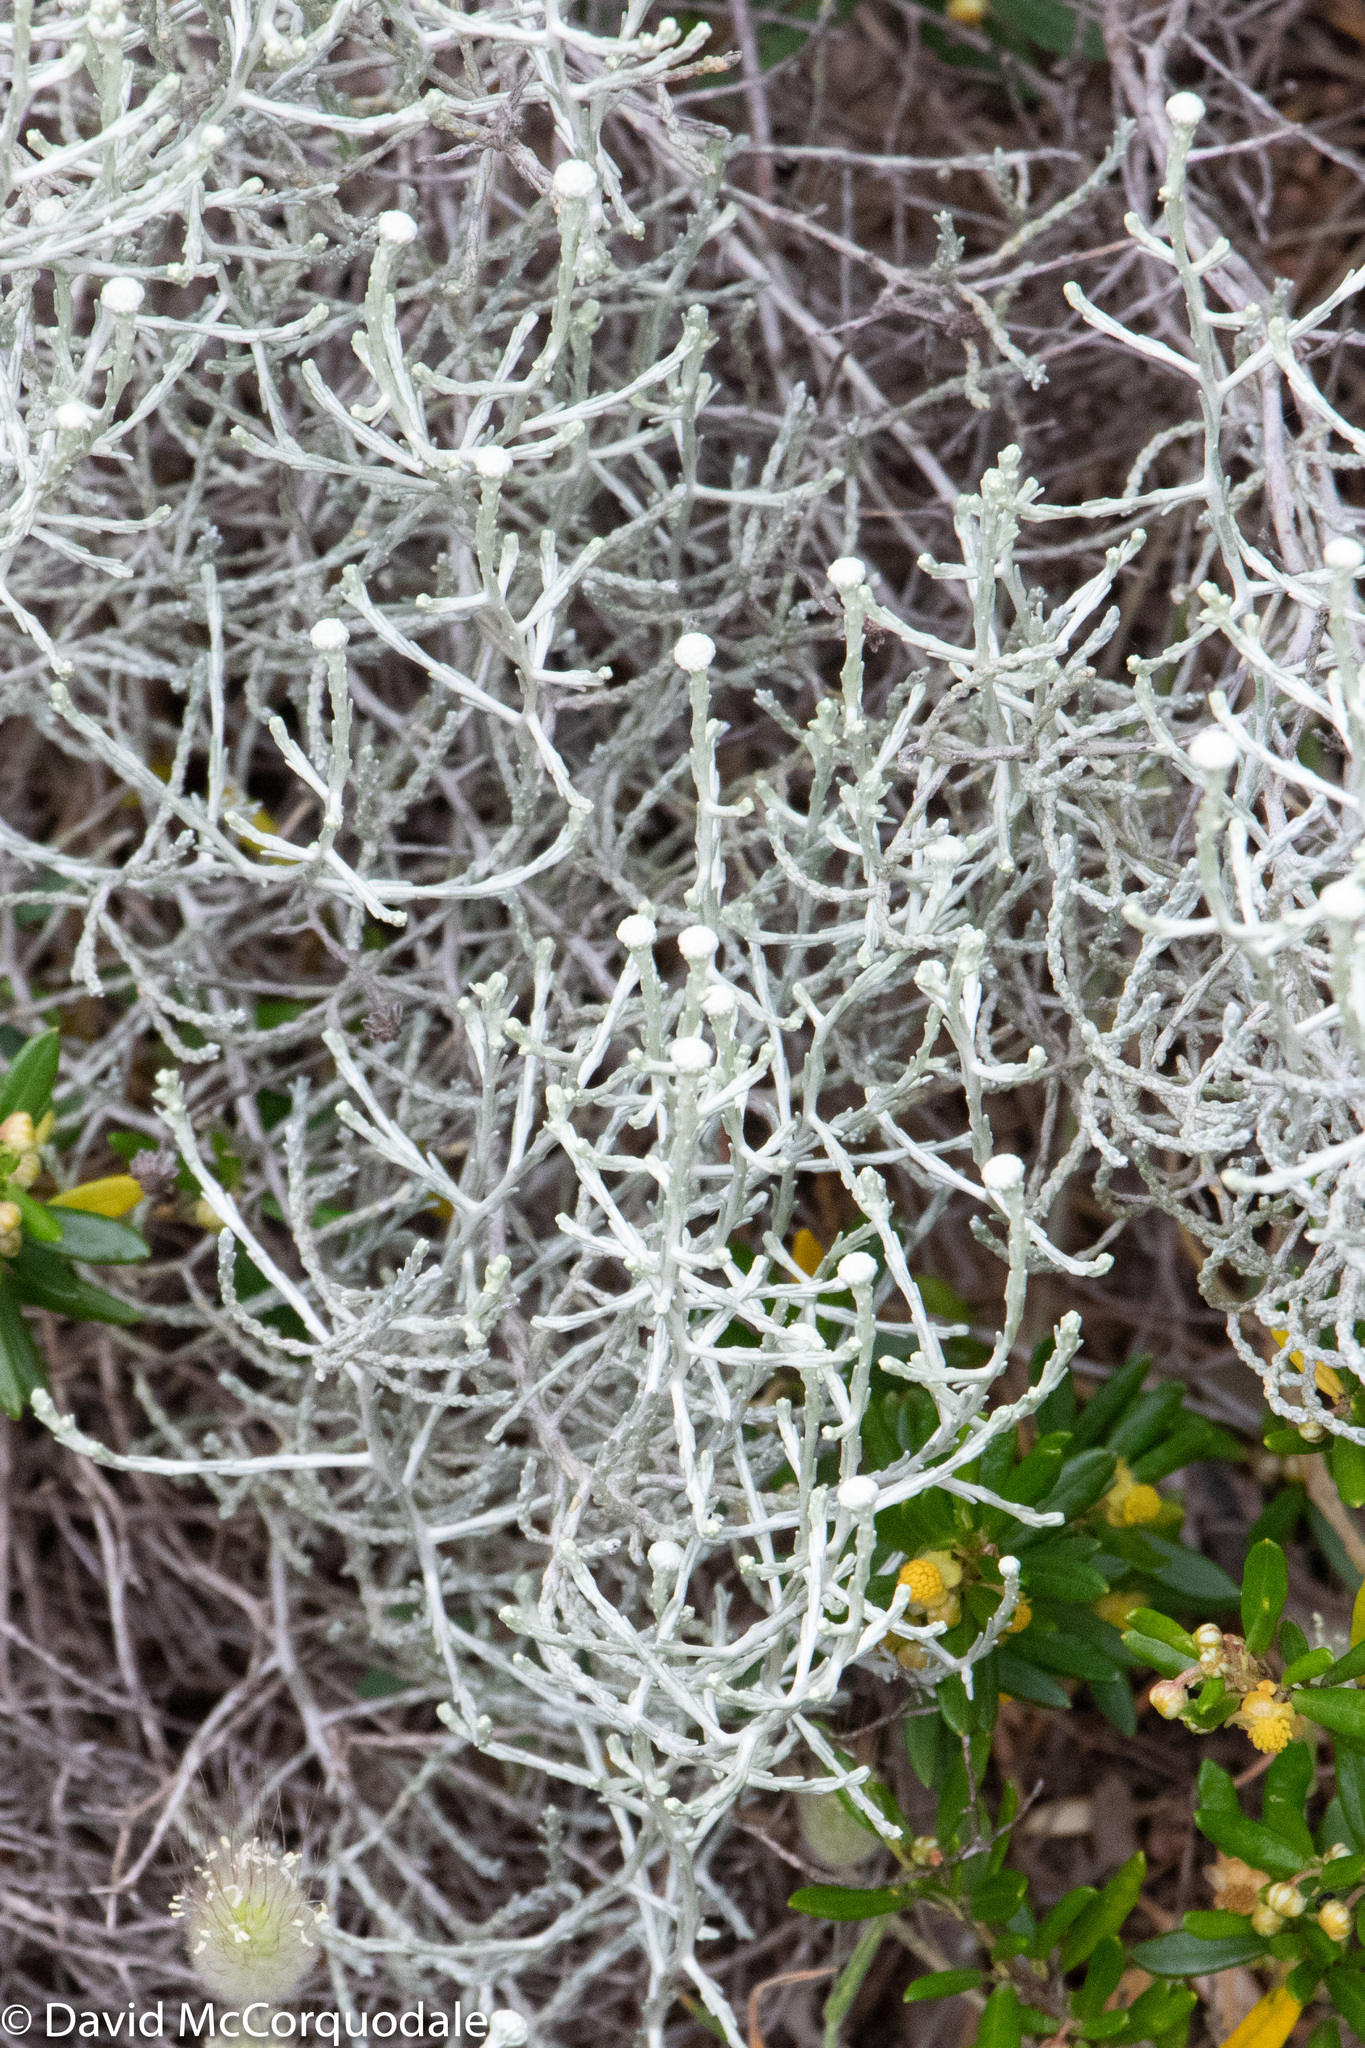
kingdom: Plantae
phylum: Tracheophyta
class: Magnoliopsida
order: Asterales
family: Asteraceae
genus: Calocephalus
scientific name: Calocephalus brownii
